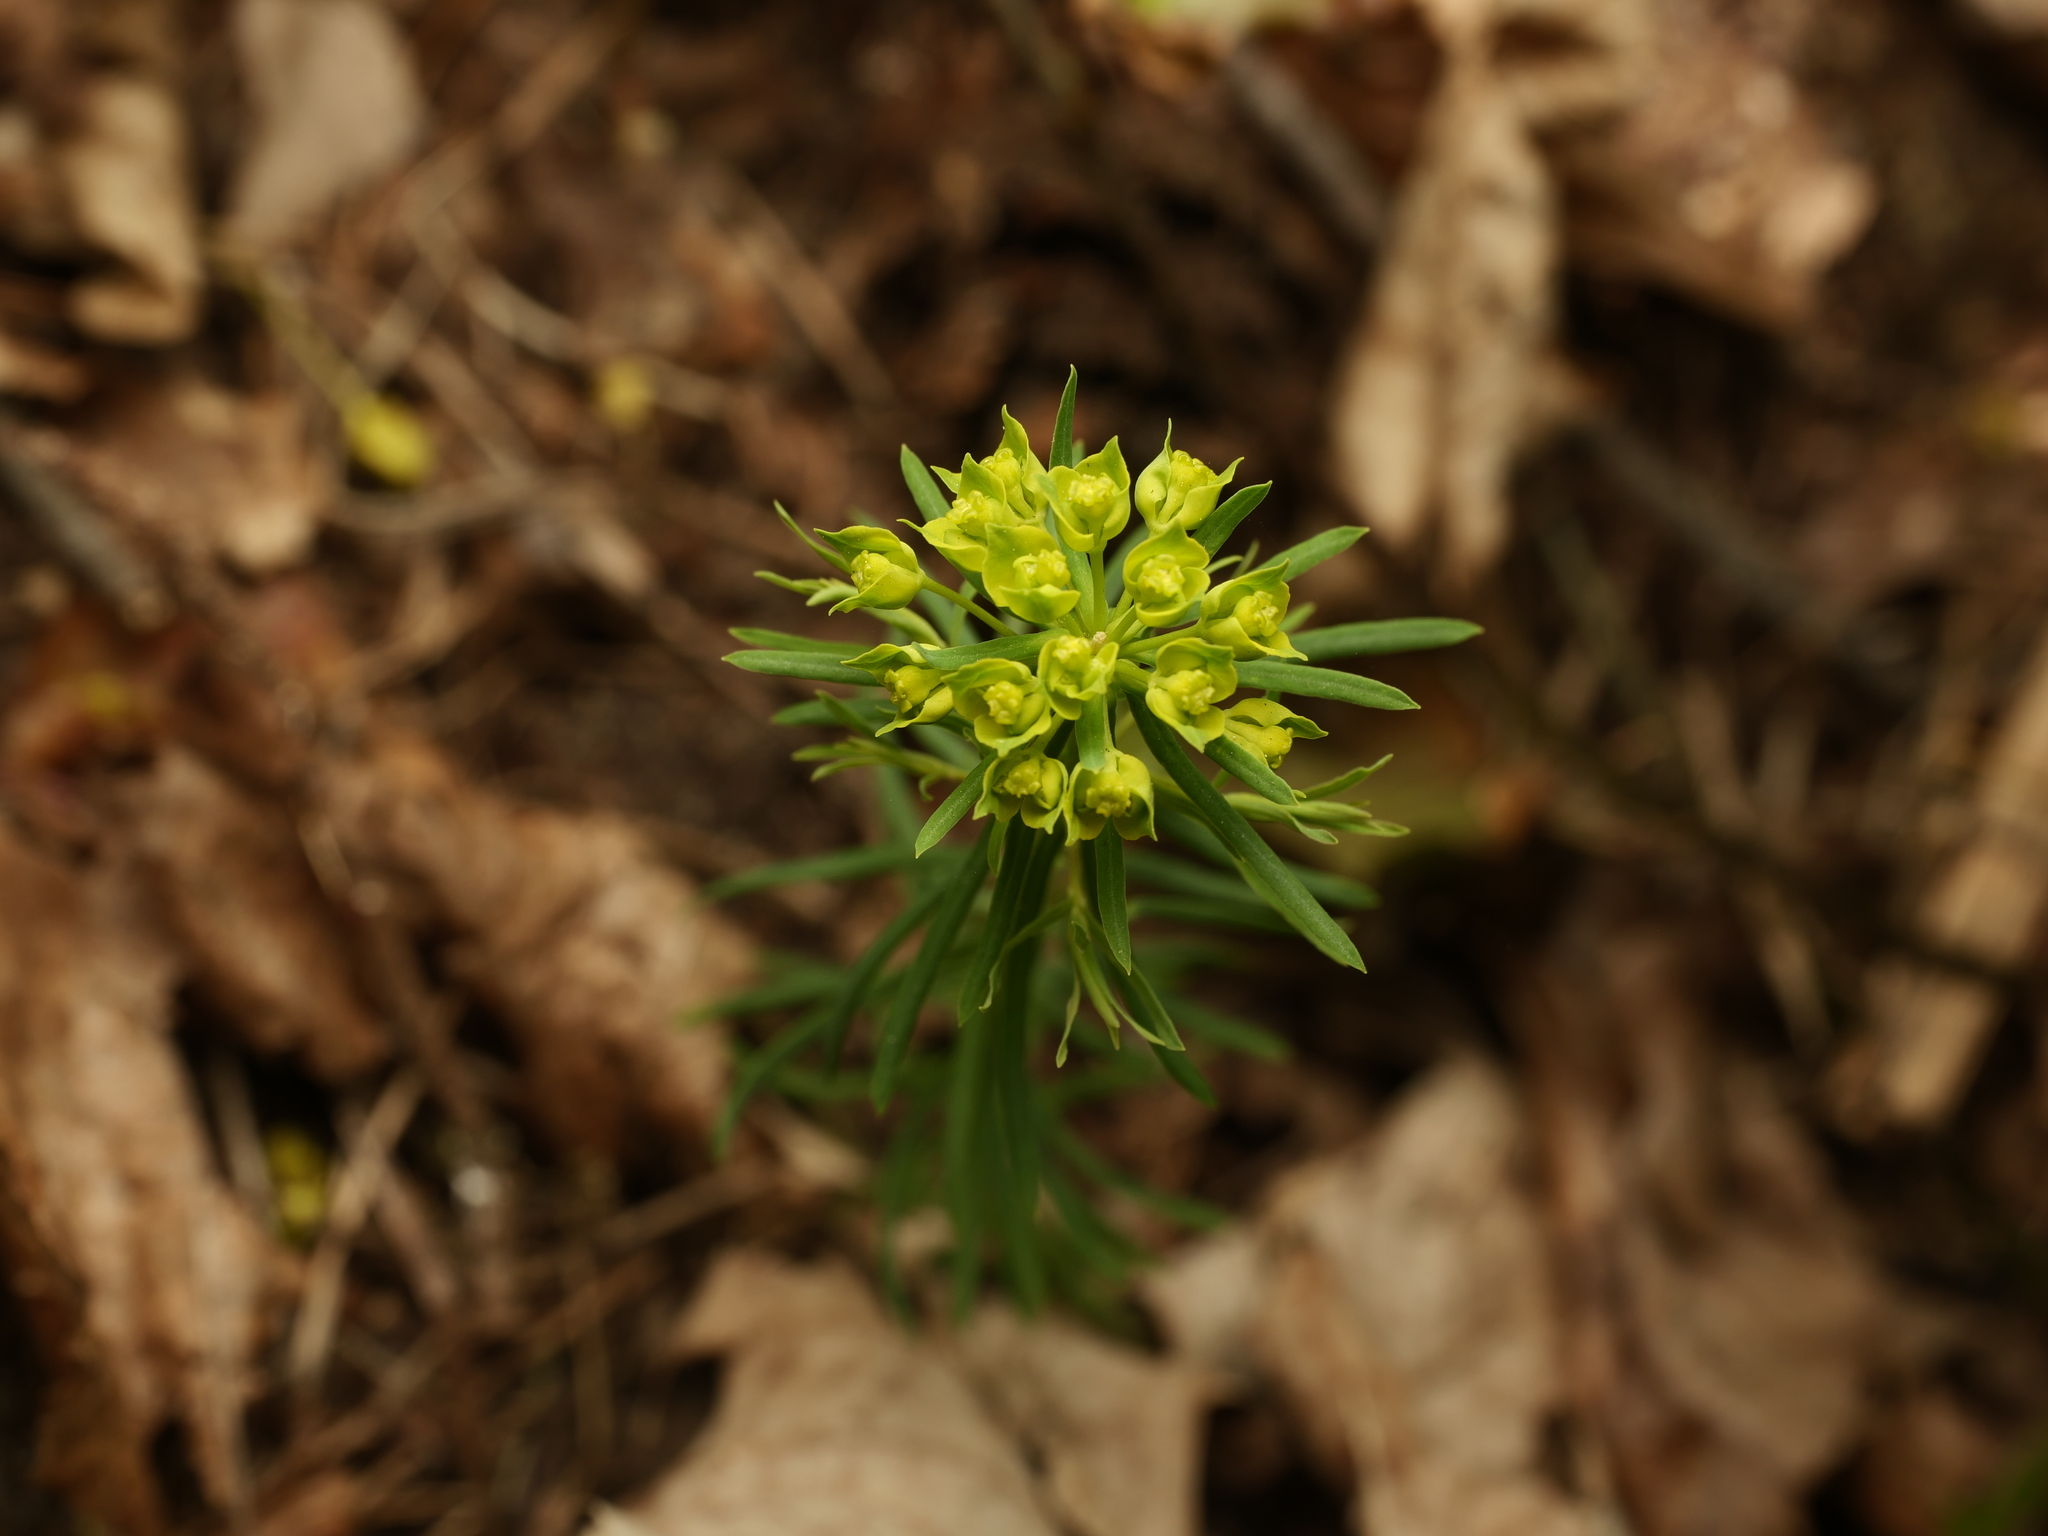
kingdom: Plantae
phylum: Tracheophyta
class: Magnoliopsida
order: Malpighiales
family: Euphorbiaceae
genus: Euphorbia
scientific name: Euphorbia cyparissias
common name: Cypress spurge
